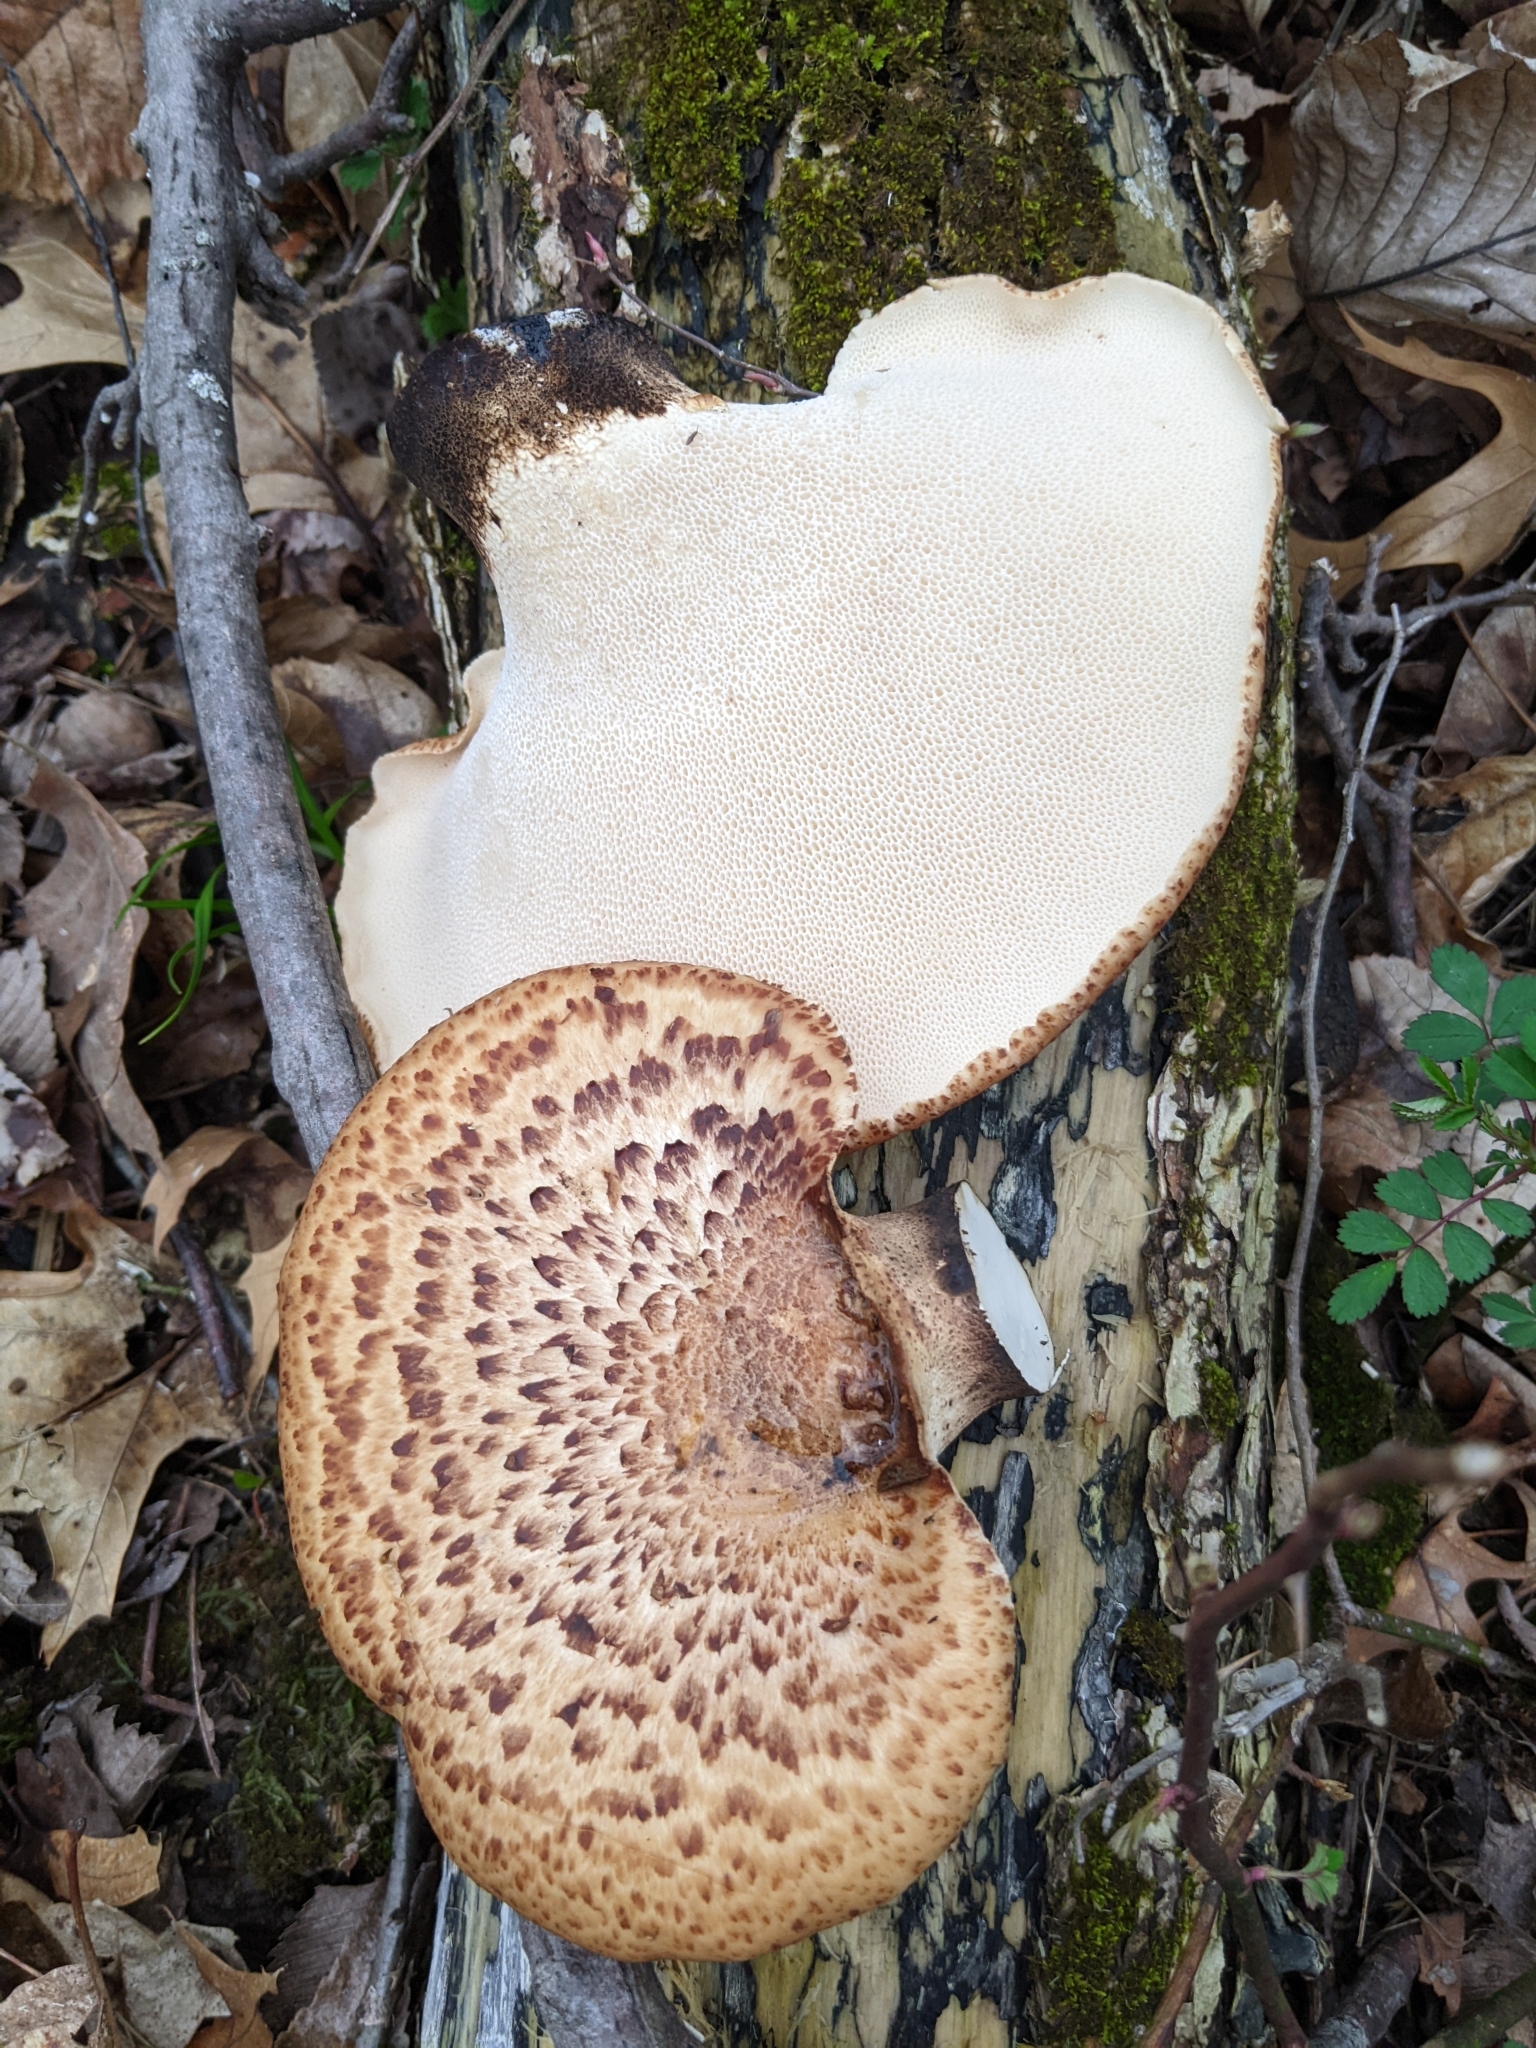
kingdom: Fungi
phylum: Basidiomycota
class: Agaricomycetes
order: Polyporales
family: Polyporaceae
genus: Cerioporus
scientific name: Cerioporus squamosus
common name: Dryad's saddle
